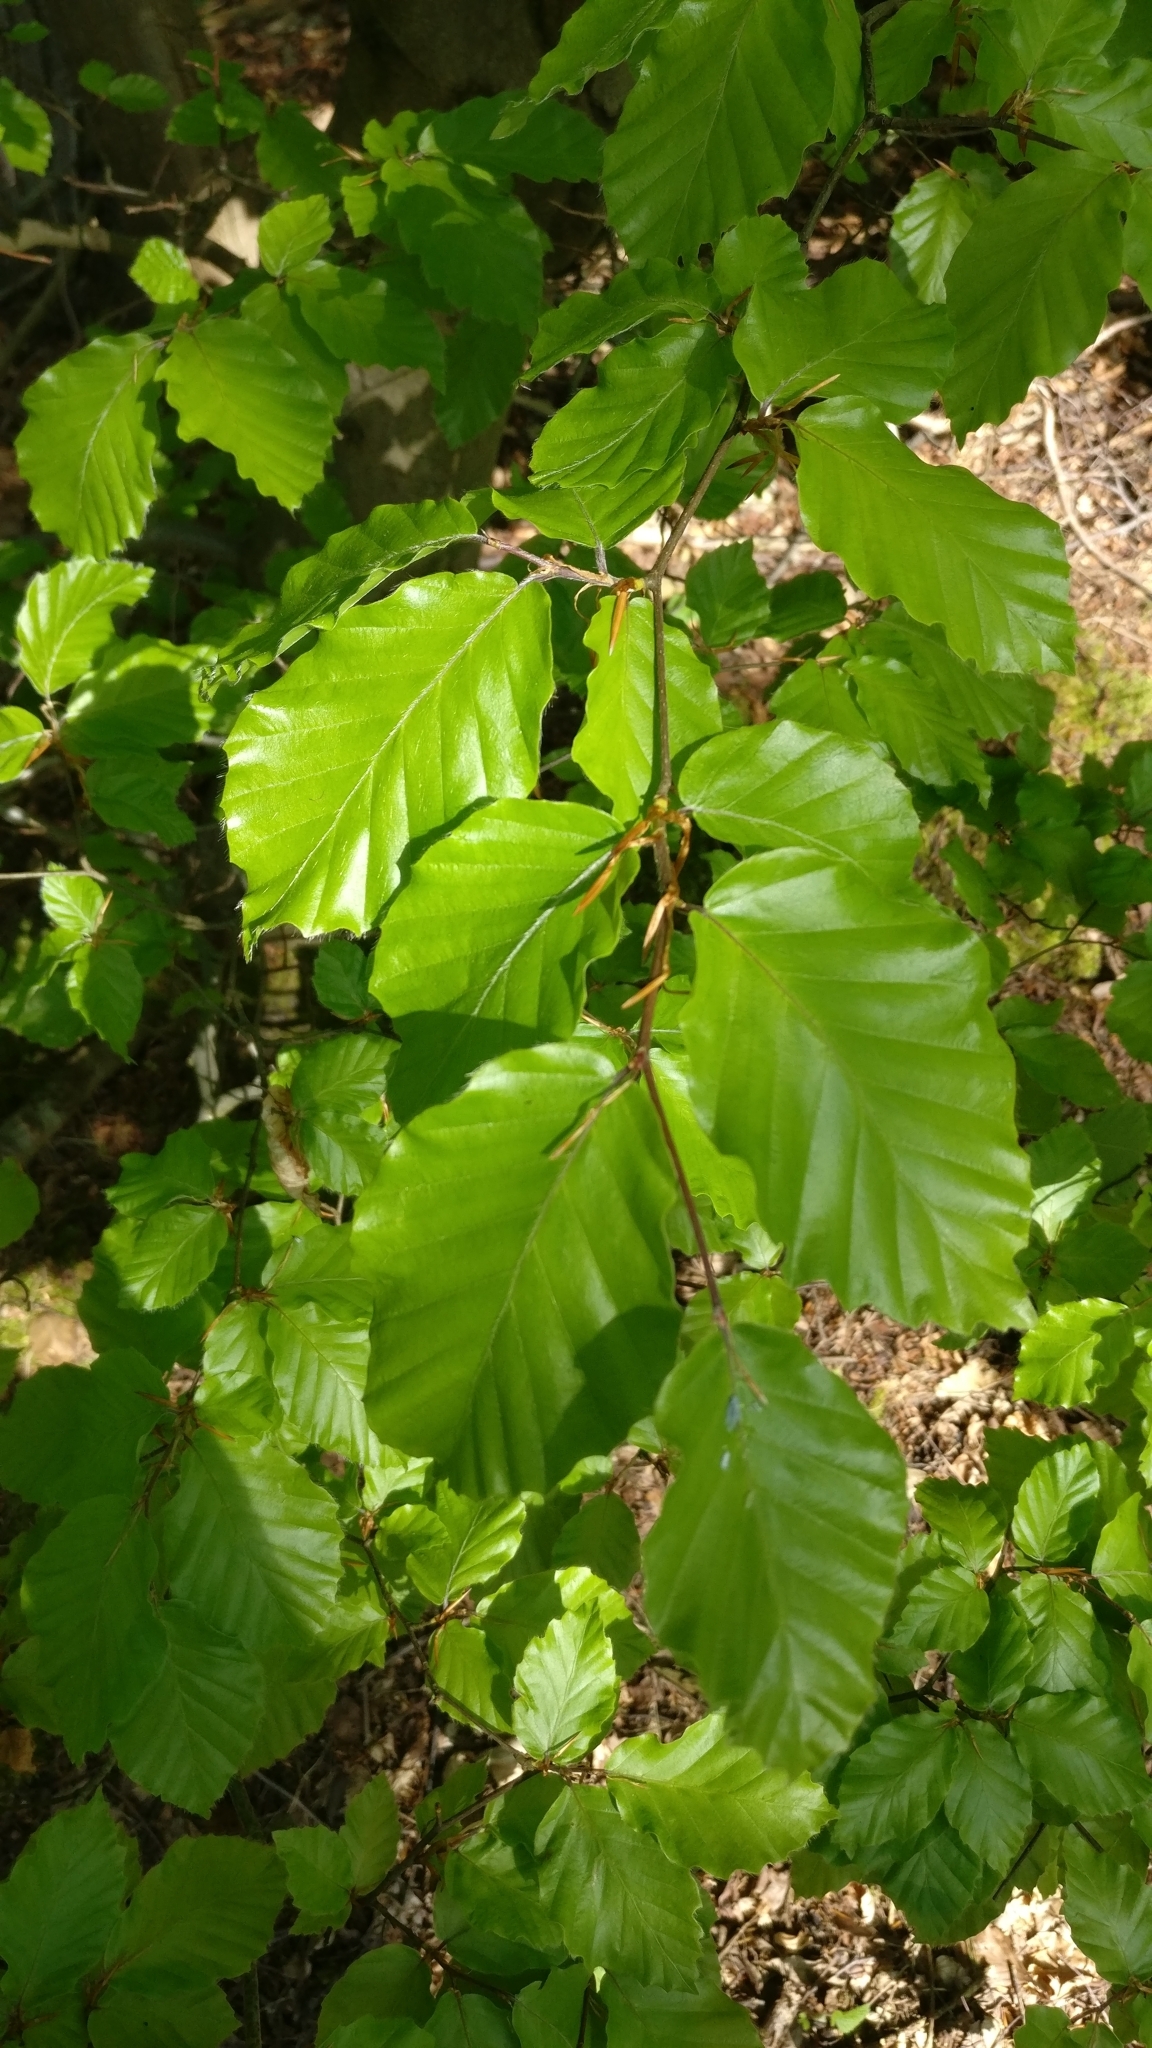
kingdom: Plantae
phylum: Tracheophyta
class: Magnoliopsida
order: Fagales
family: Fagaceae
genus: Fagus
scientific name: Fagus sylvatica
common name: Beech
